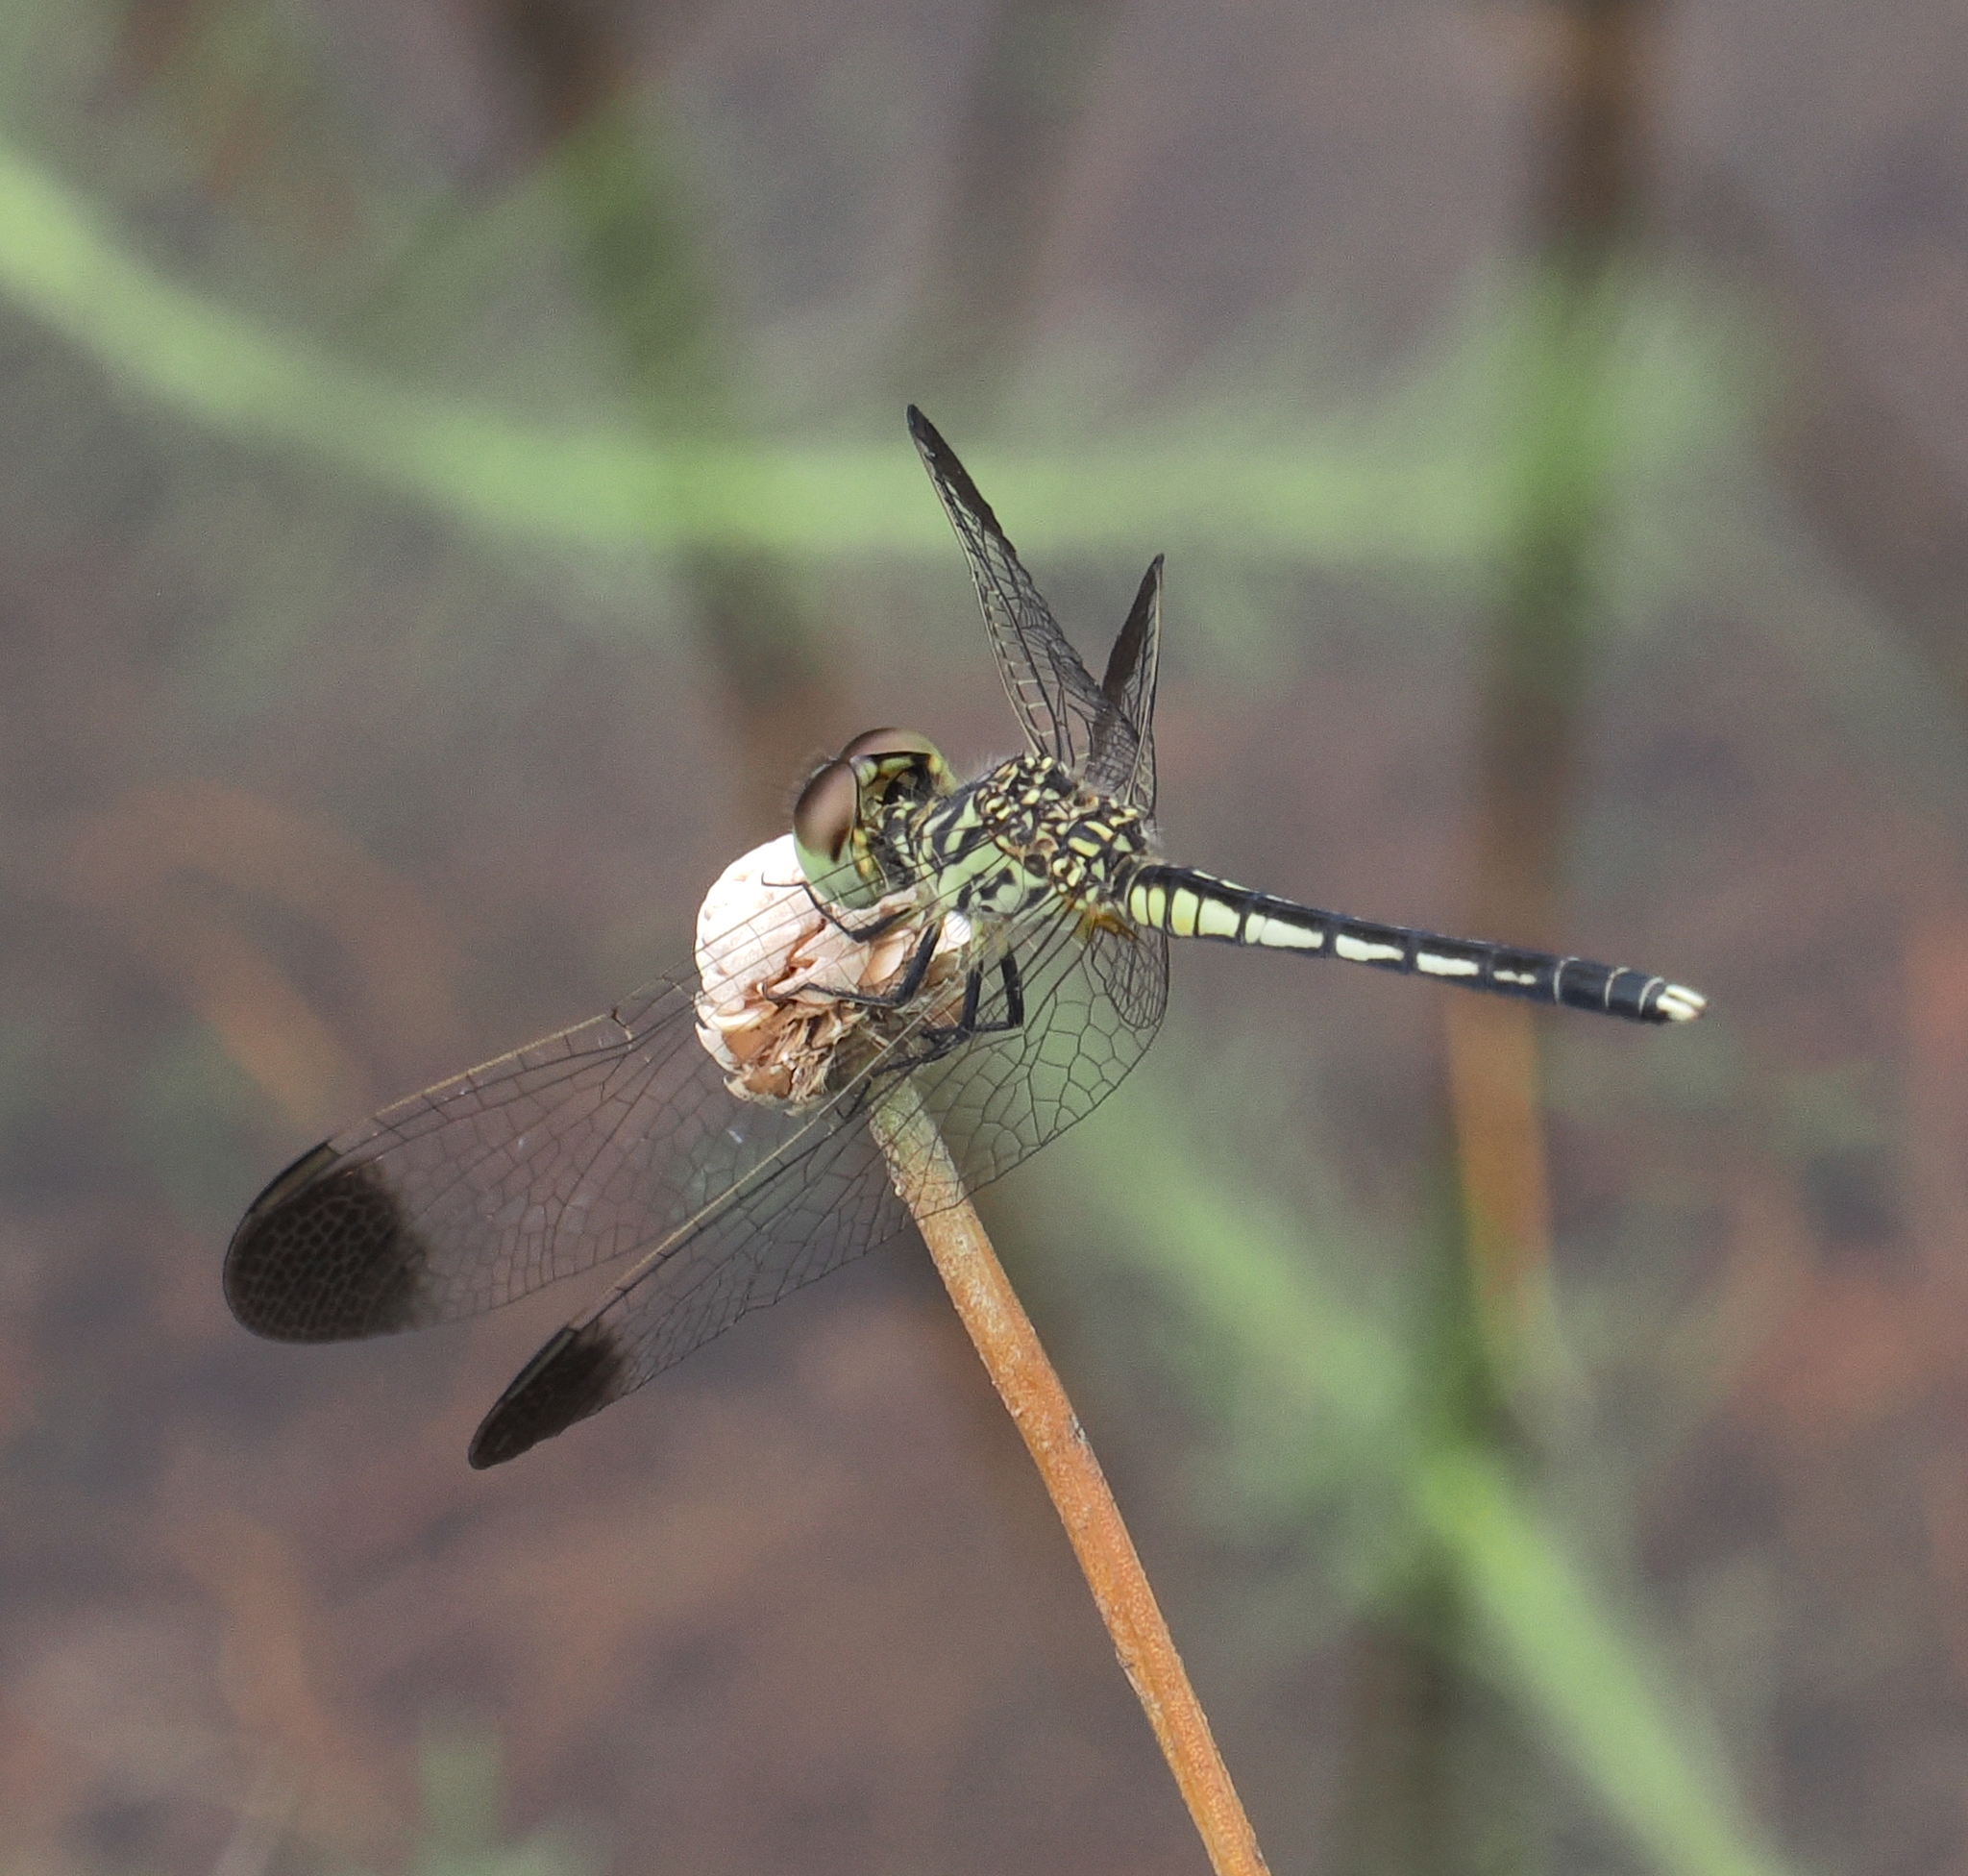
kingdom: Animalia
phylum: Arthropoda
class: Insecta
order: Odonata
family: Libellulidae
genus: Diplacodes
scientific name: Diplacodes nebulosa
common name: Black-tipped percher
